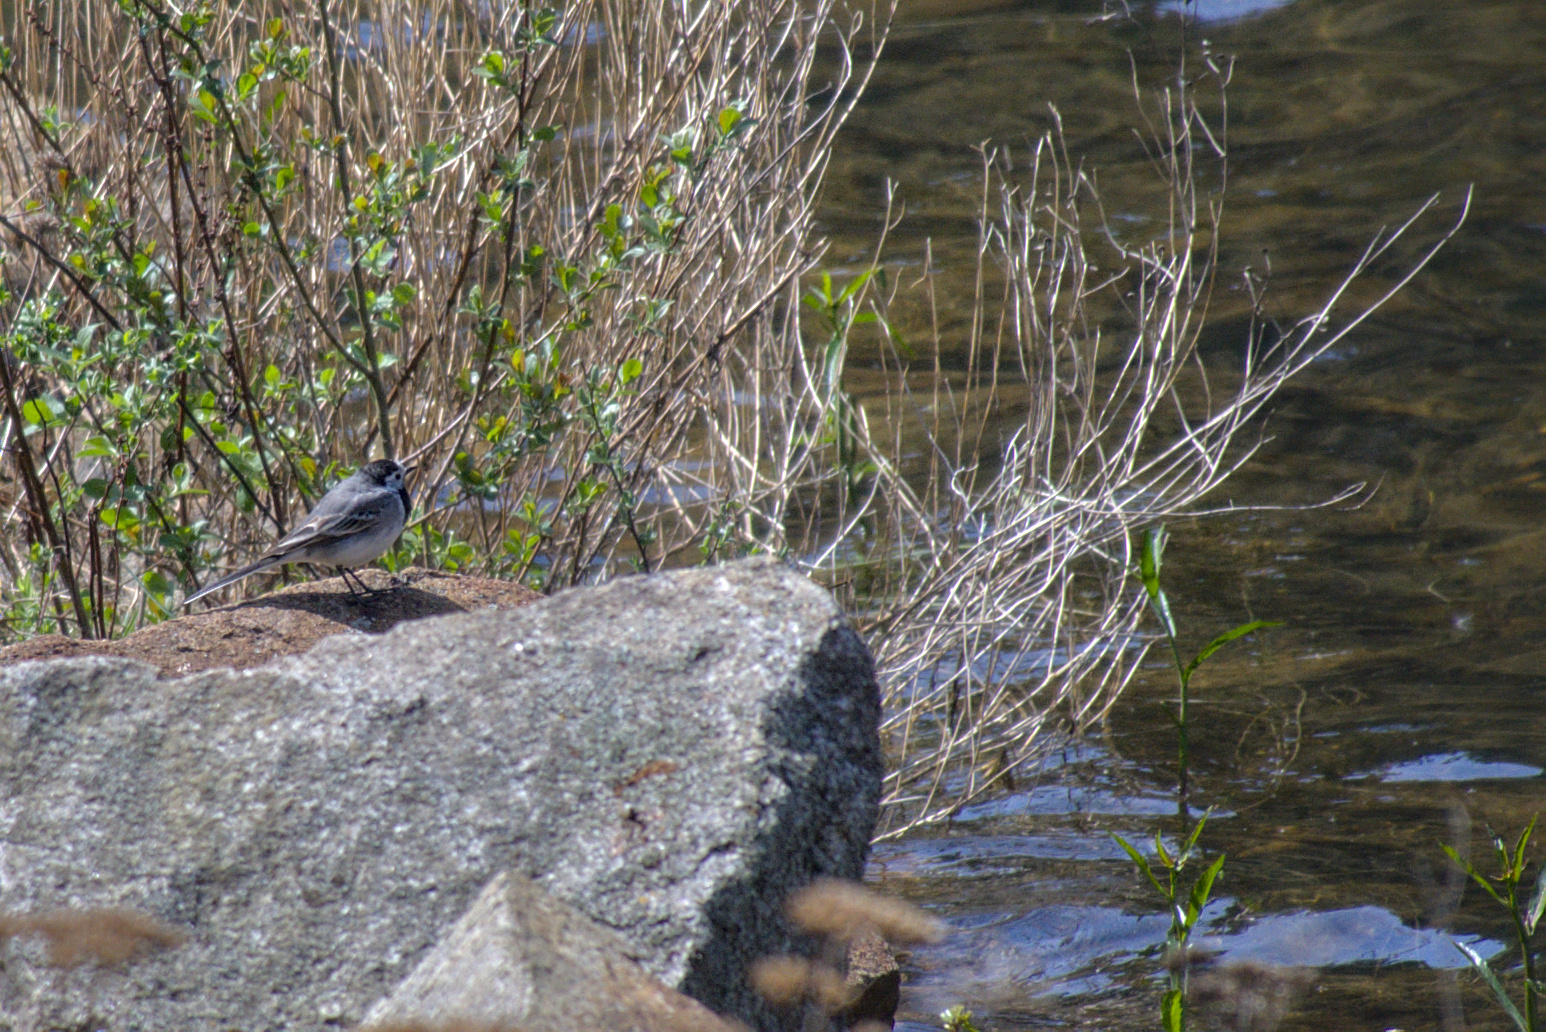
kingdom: Animalia
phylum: Chordata
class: Aves
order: Passeriformes
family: Motacillidae
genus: Motacilla
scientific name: Motacilla alba
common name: White wagtail
